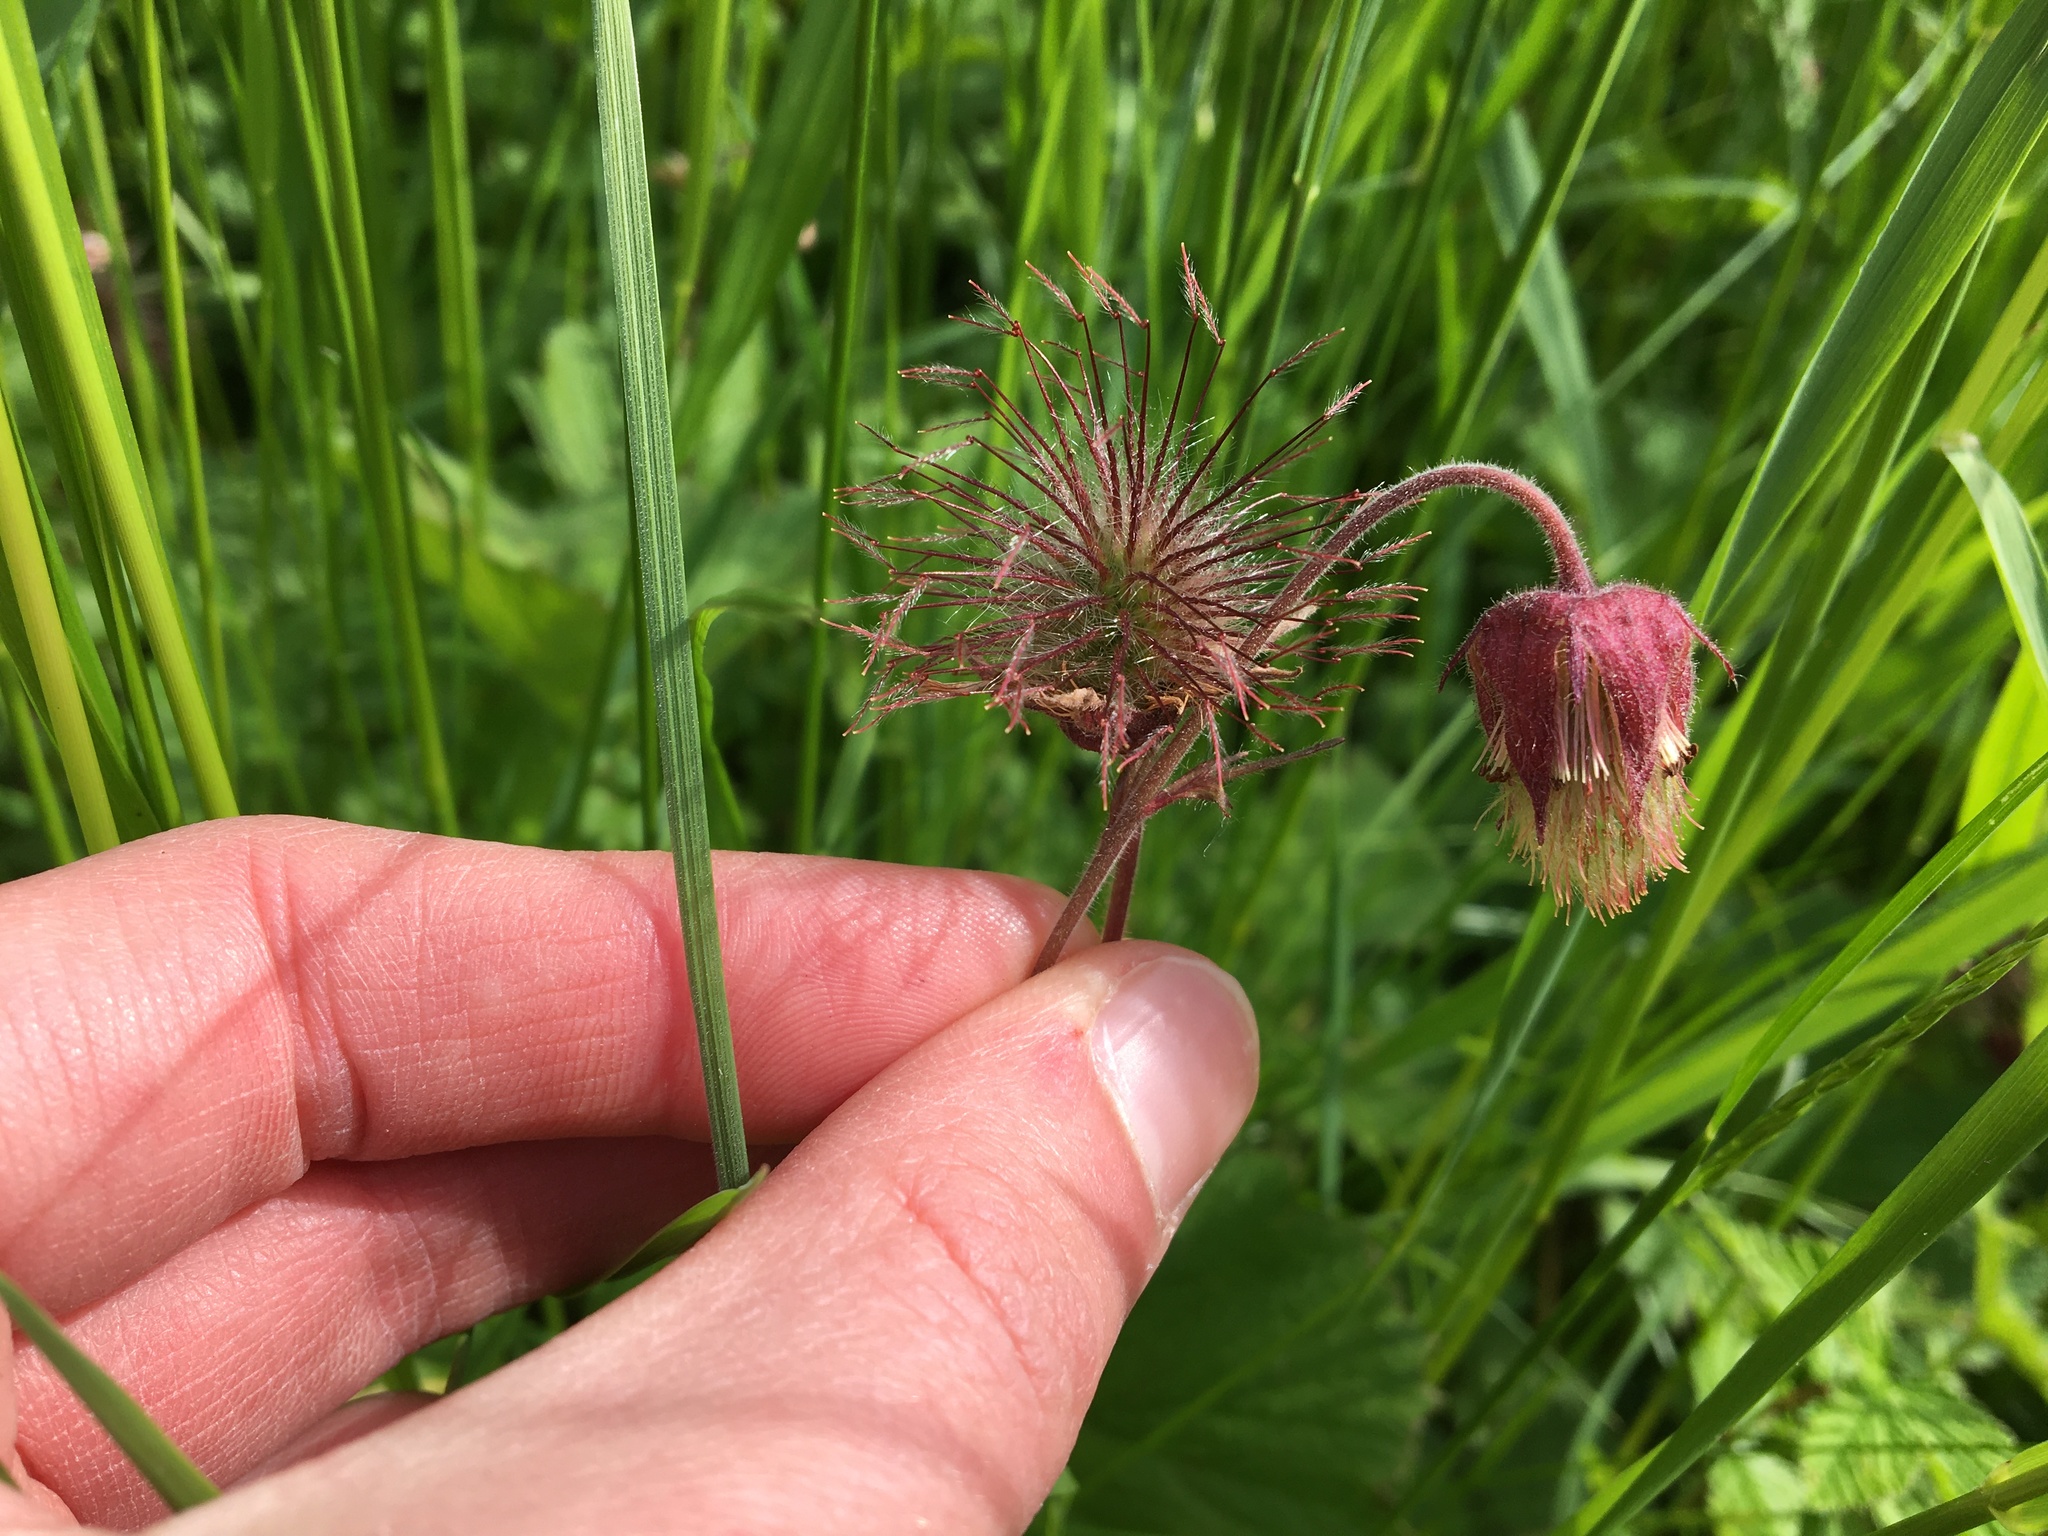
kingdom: Plantae
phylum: Tracheophyta
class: Magnoliopsida
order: Rosales
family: Rosaceae
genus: Geum
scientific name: Geum rivale
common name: Water avens
